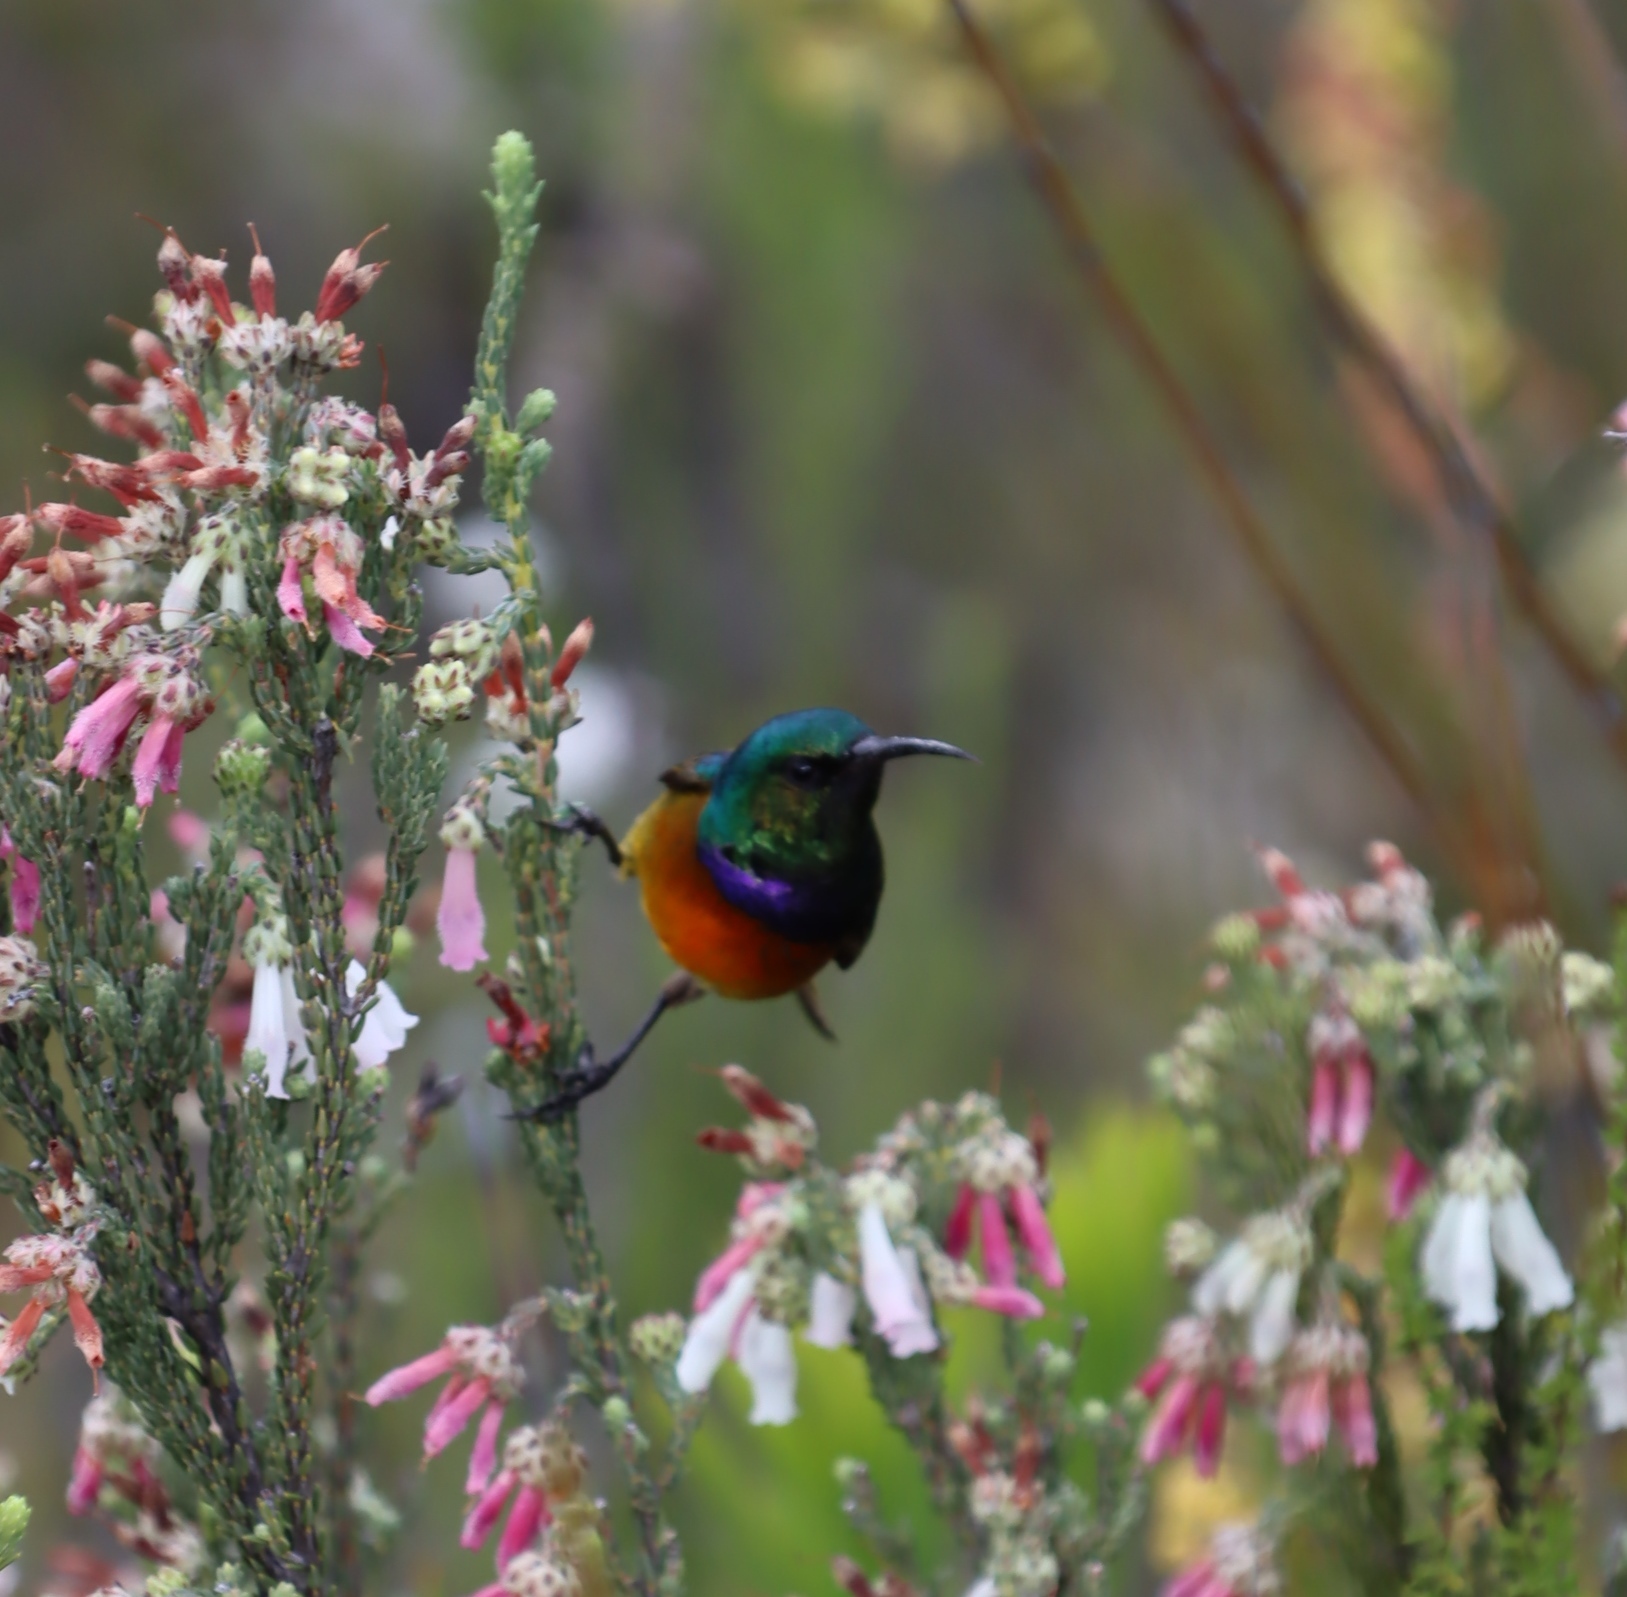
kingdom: Plantae
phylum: Tracheophyta
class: Magnoliopsida
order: Ericales
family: Ericaceae
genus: Erica
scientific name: Erica pectinifolia
